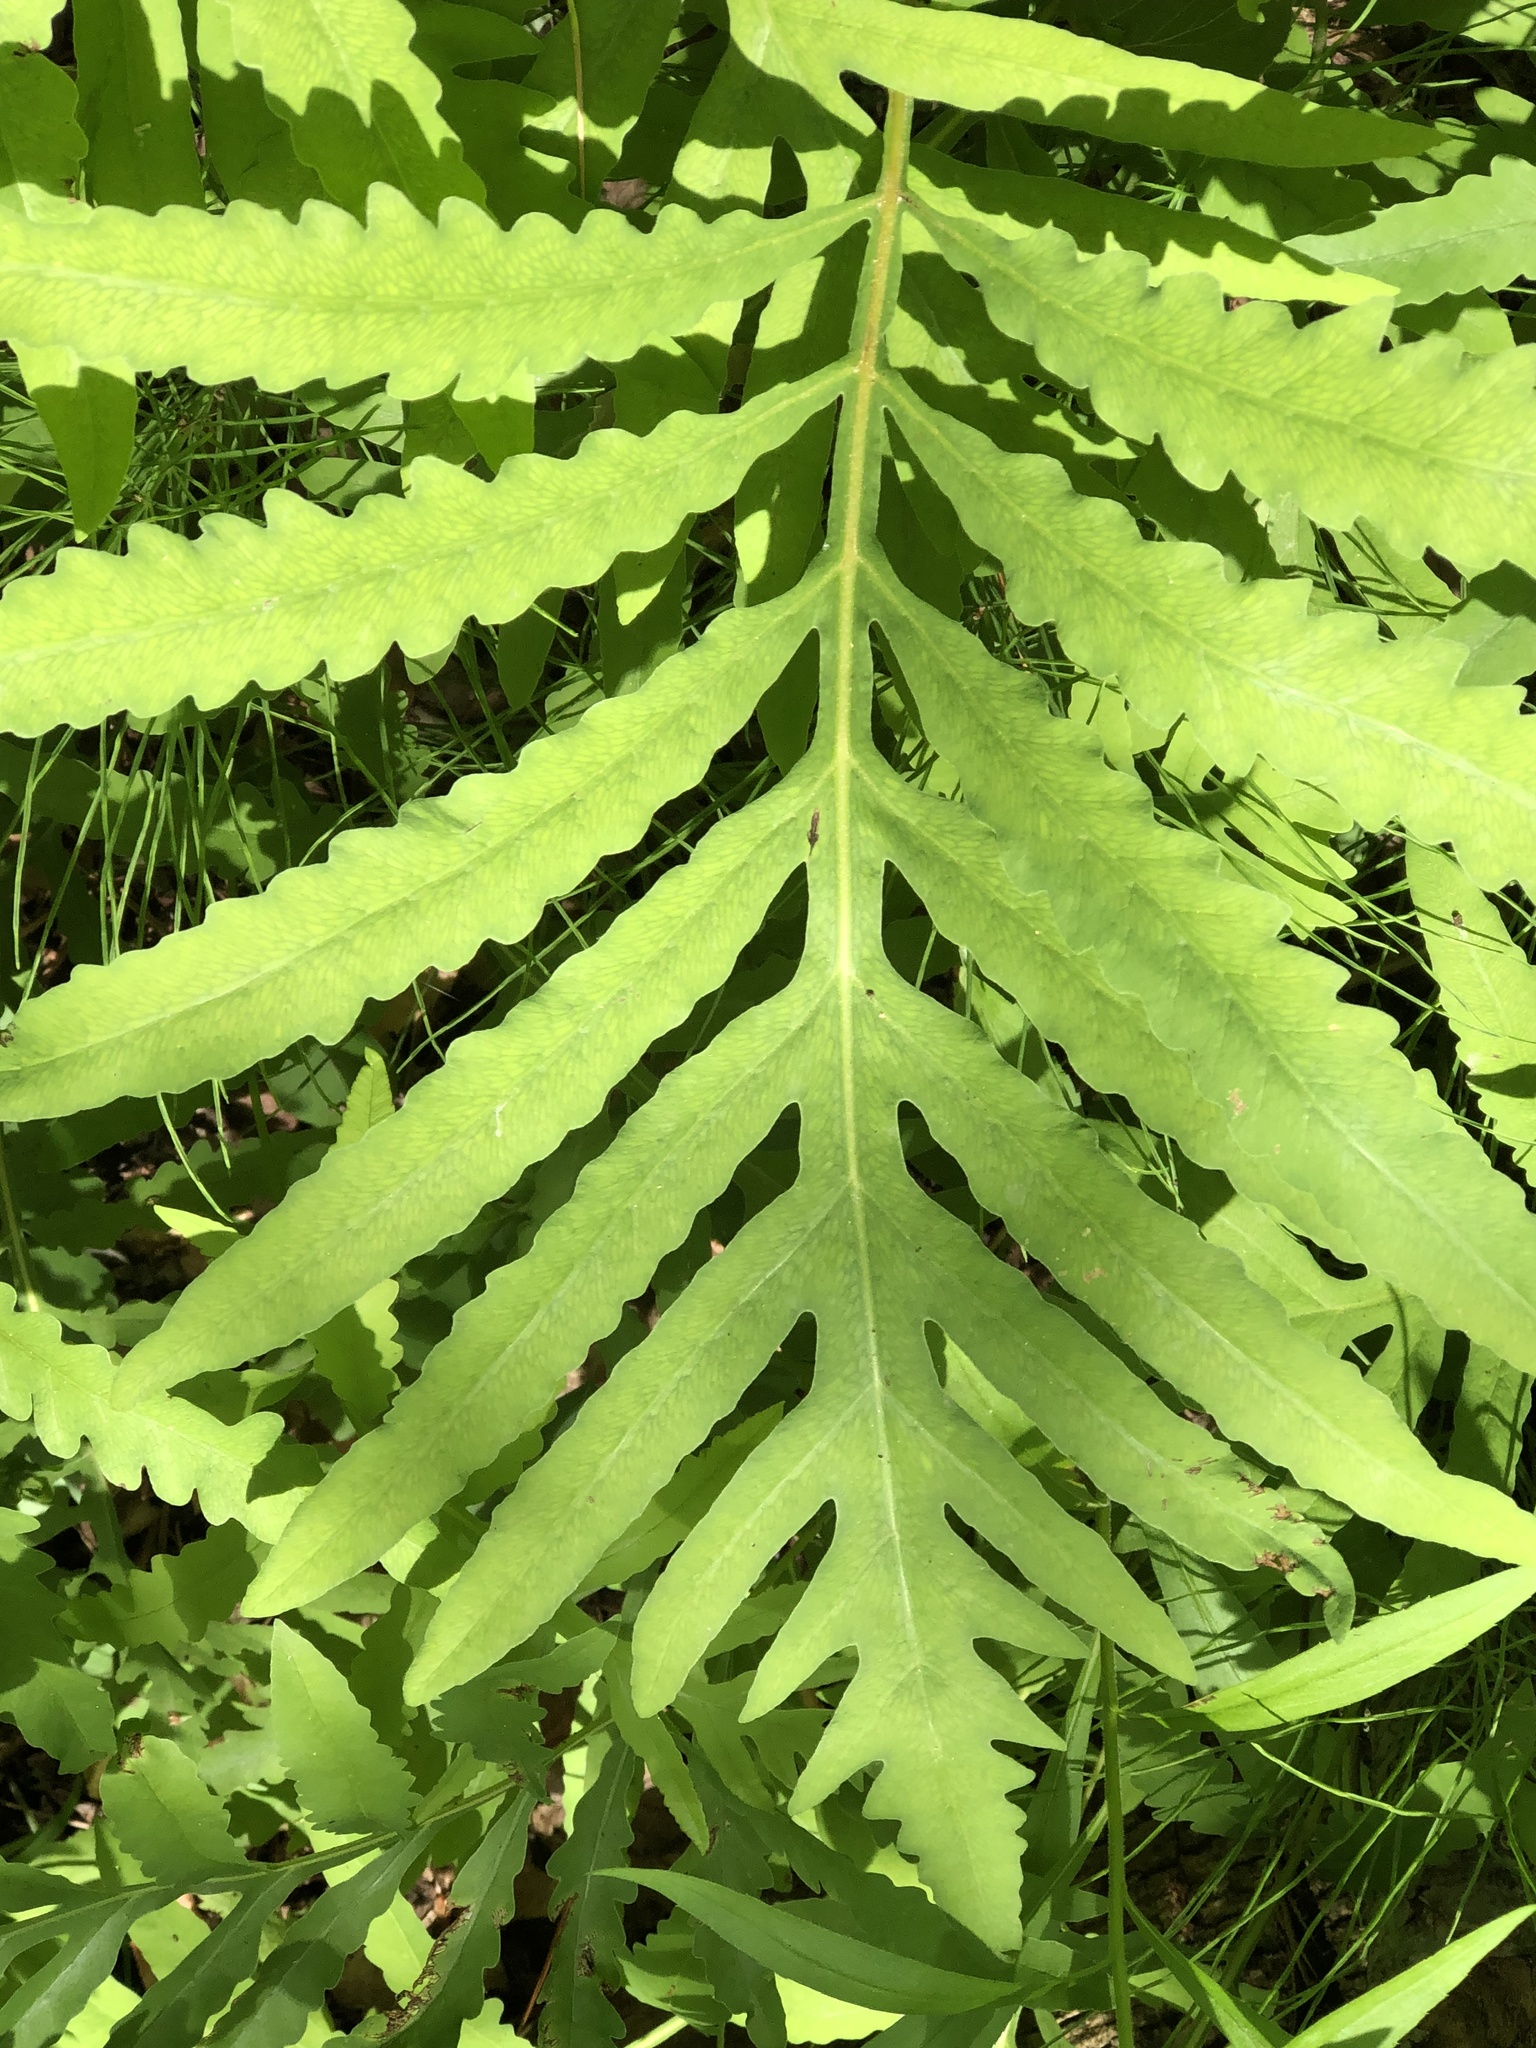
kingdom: Plantae
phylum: Tracheophyta
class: Polypodiopsida
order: Polypodiales
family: Onocleaceae
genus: Onoclea
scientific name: Onoclea sensibilis
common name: Sensitive fern
